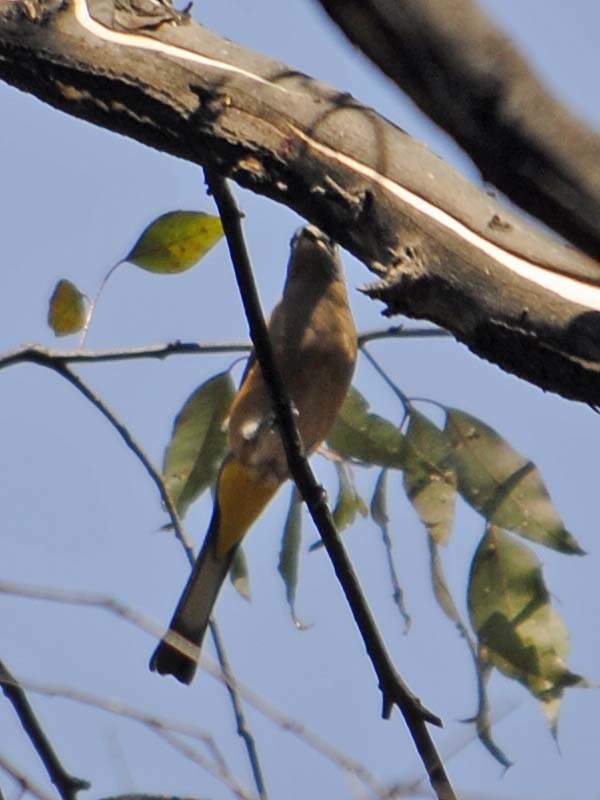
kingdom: Animalia
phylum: Chordata
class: Aves
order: Passeriformes
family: Ptilogonatidae
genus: Ptilogonys
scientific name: Ptilogonys cinereus
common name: Gray silky-flycatcher
